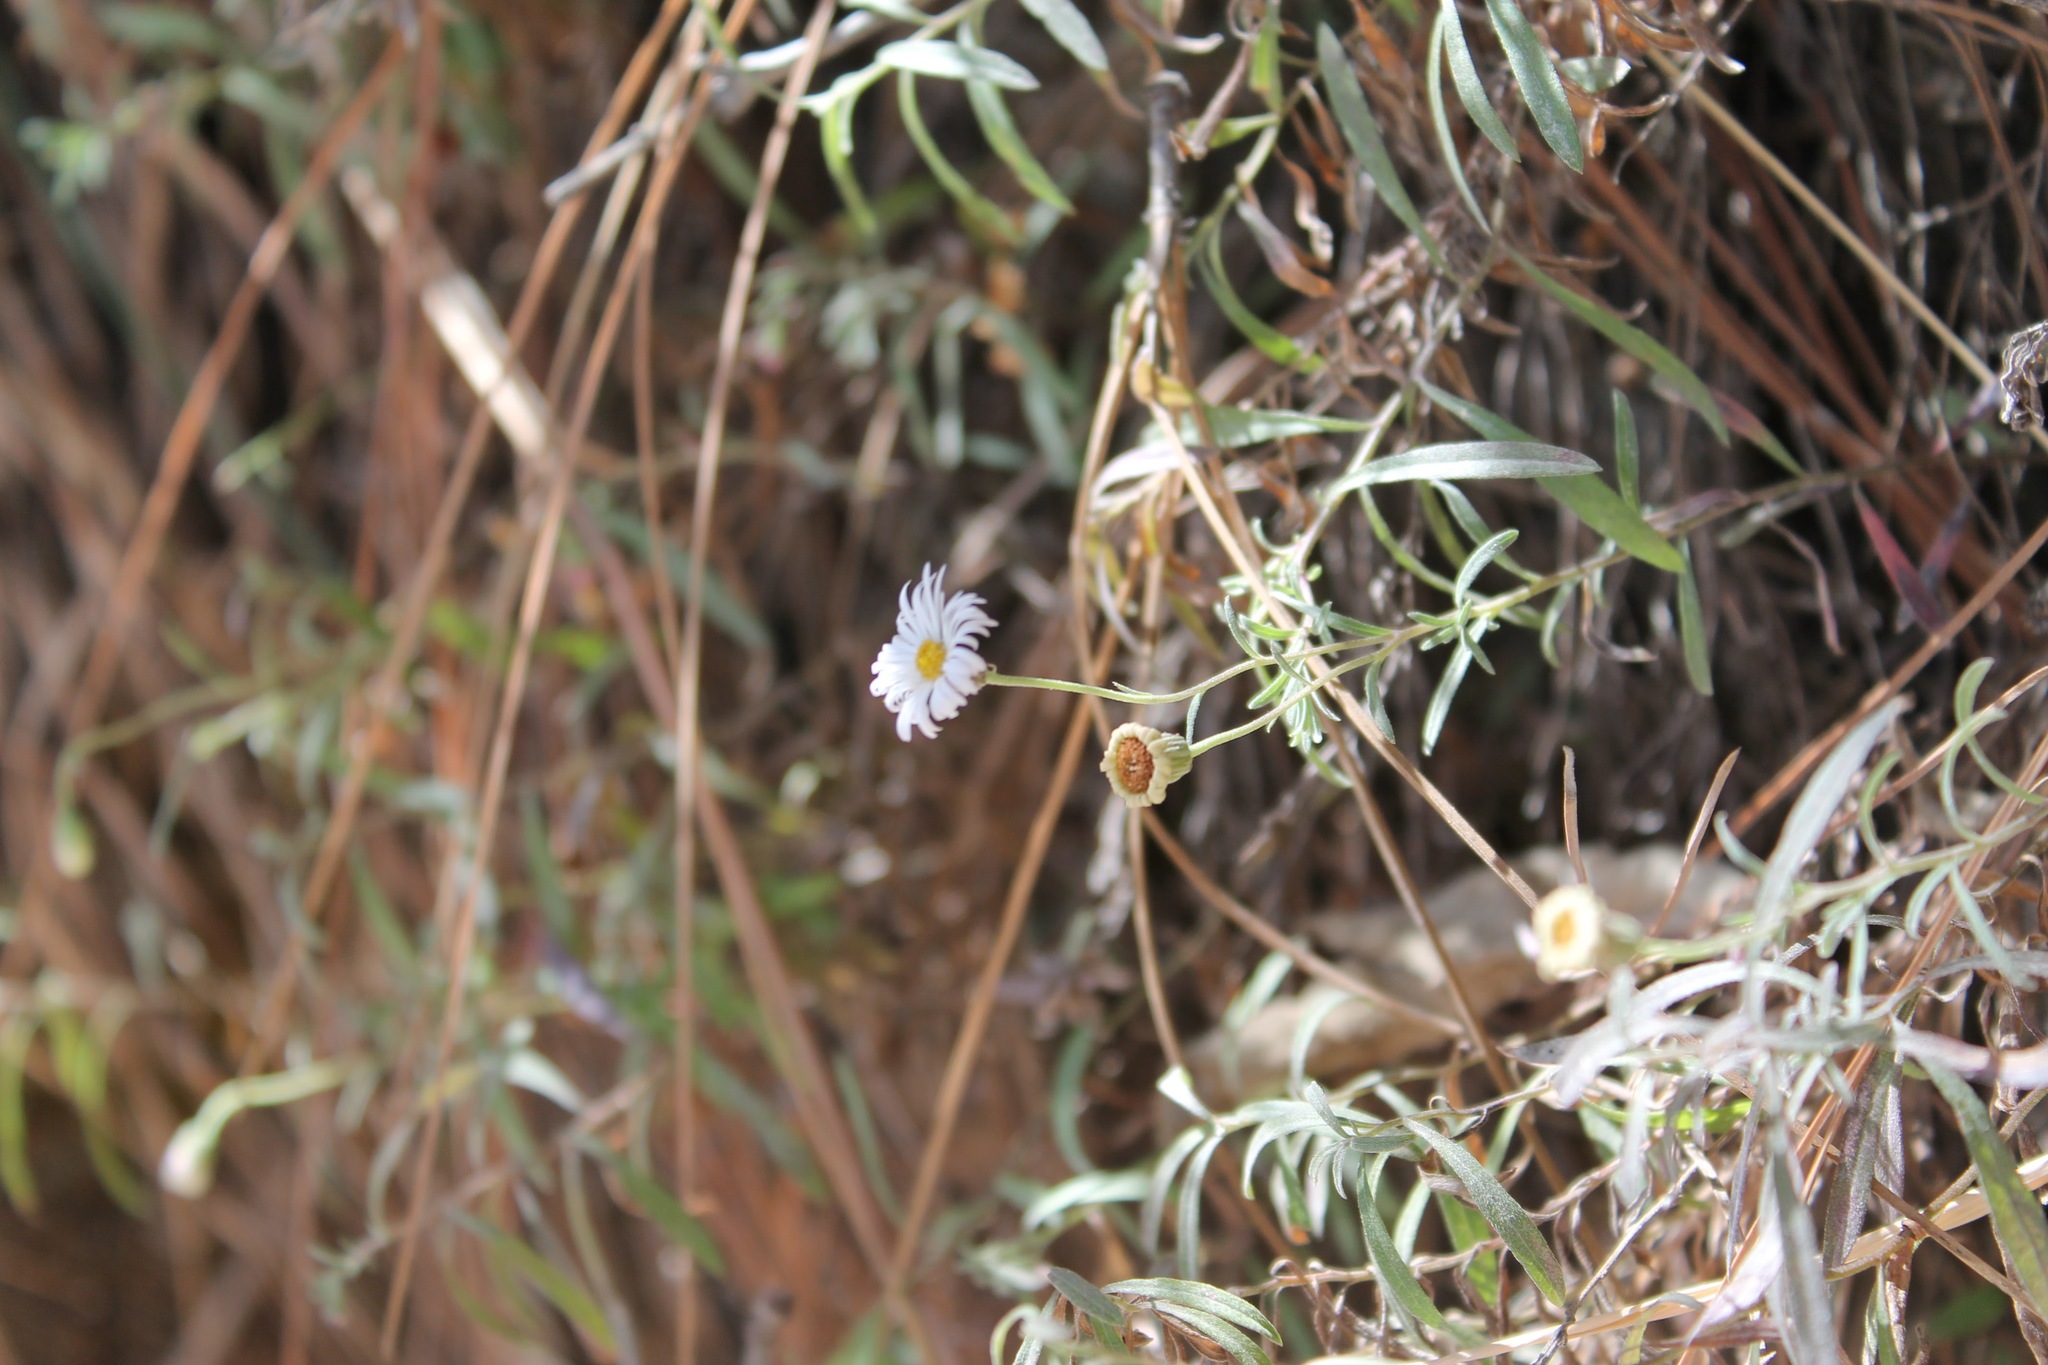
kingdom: Plantae
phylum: Tracheophyta
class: Magnoliopsida
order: Asterales
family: Asteraceae
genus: Erigeron
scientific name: Erigeron karvinskianus
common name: Mexican fleabane
